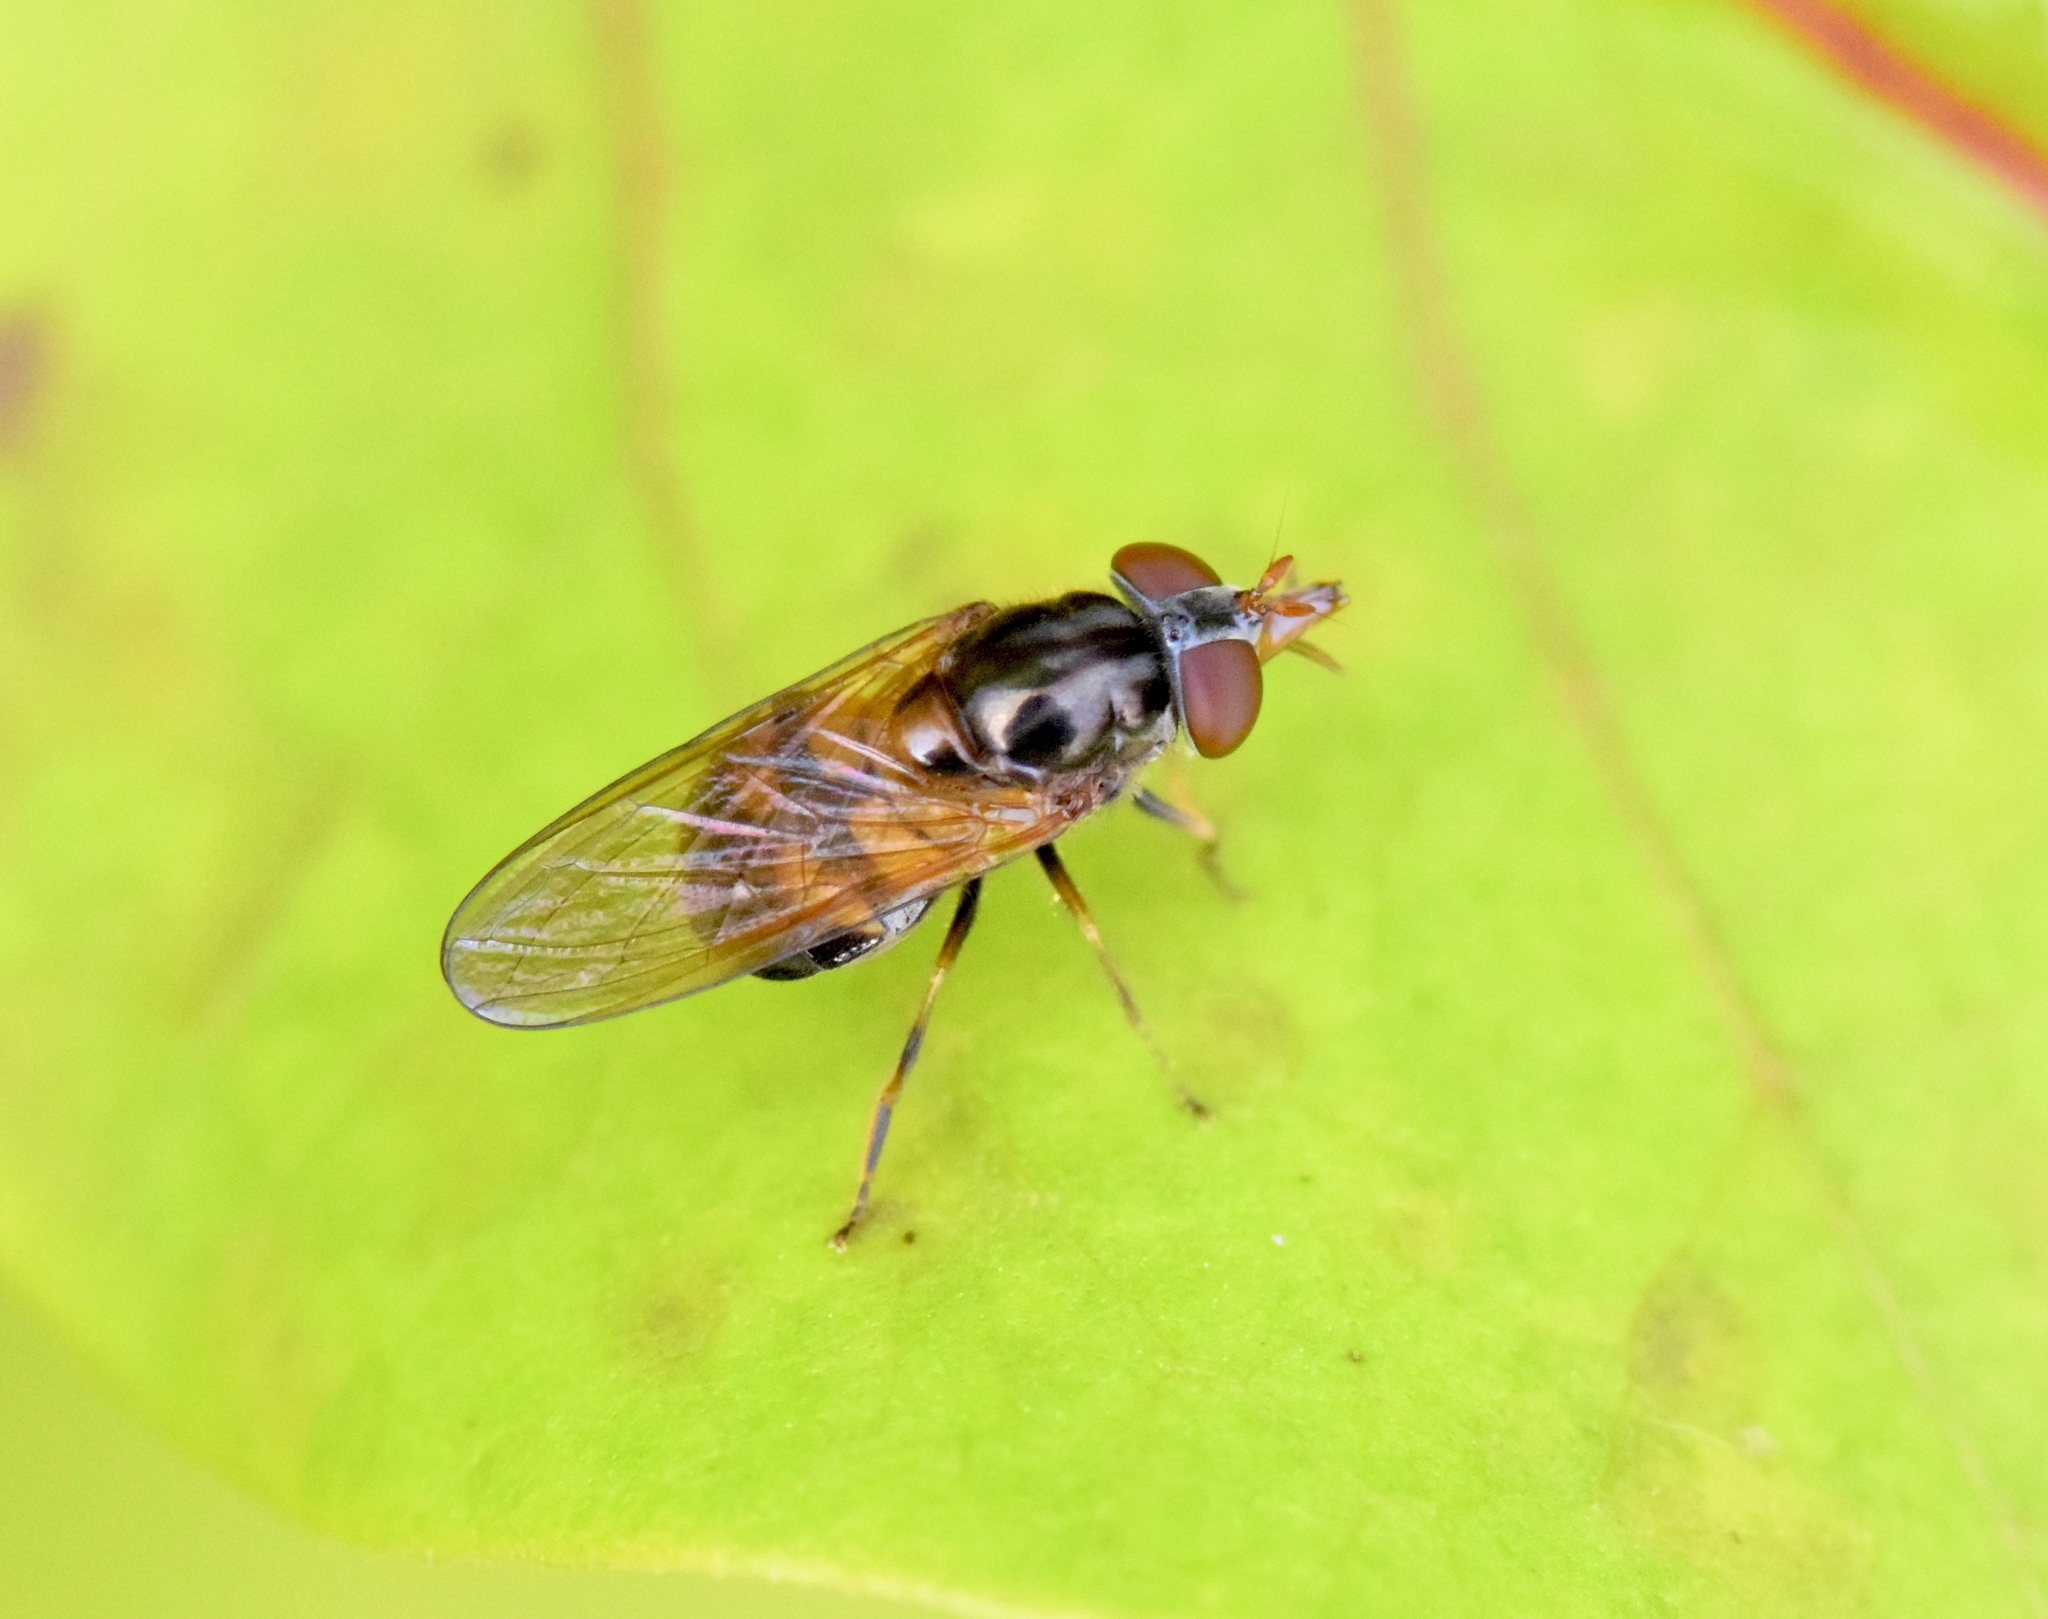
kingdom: Animalia
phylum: Arthropoda
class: Insecta
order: Diptera
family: Syrphidae
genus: Rhingia
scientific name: Rhingia nasica
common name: American snout fly
